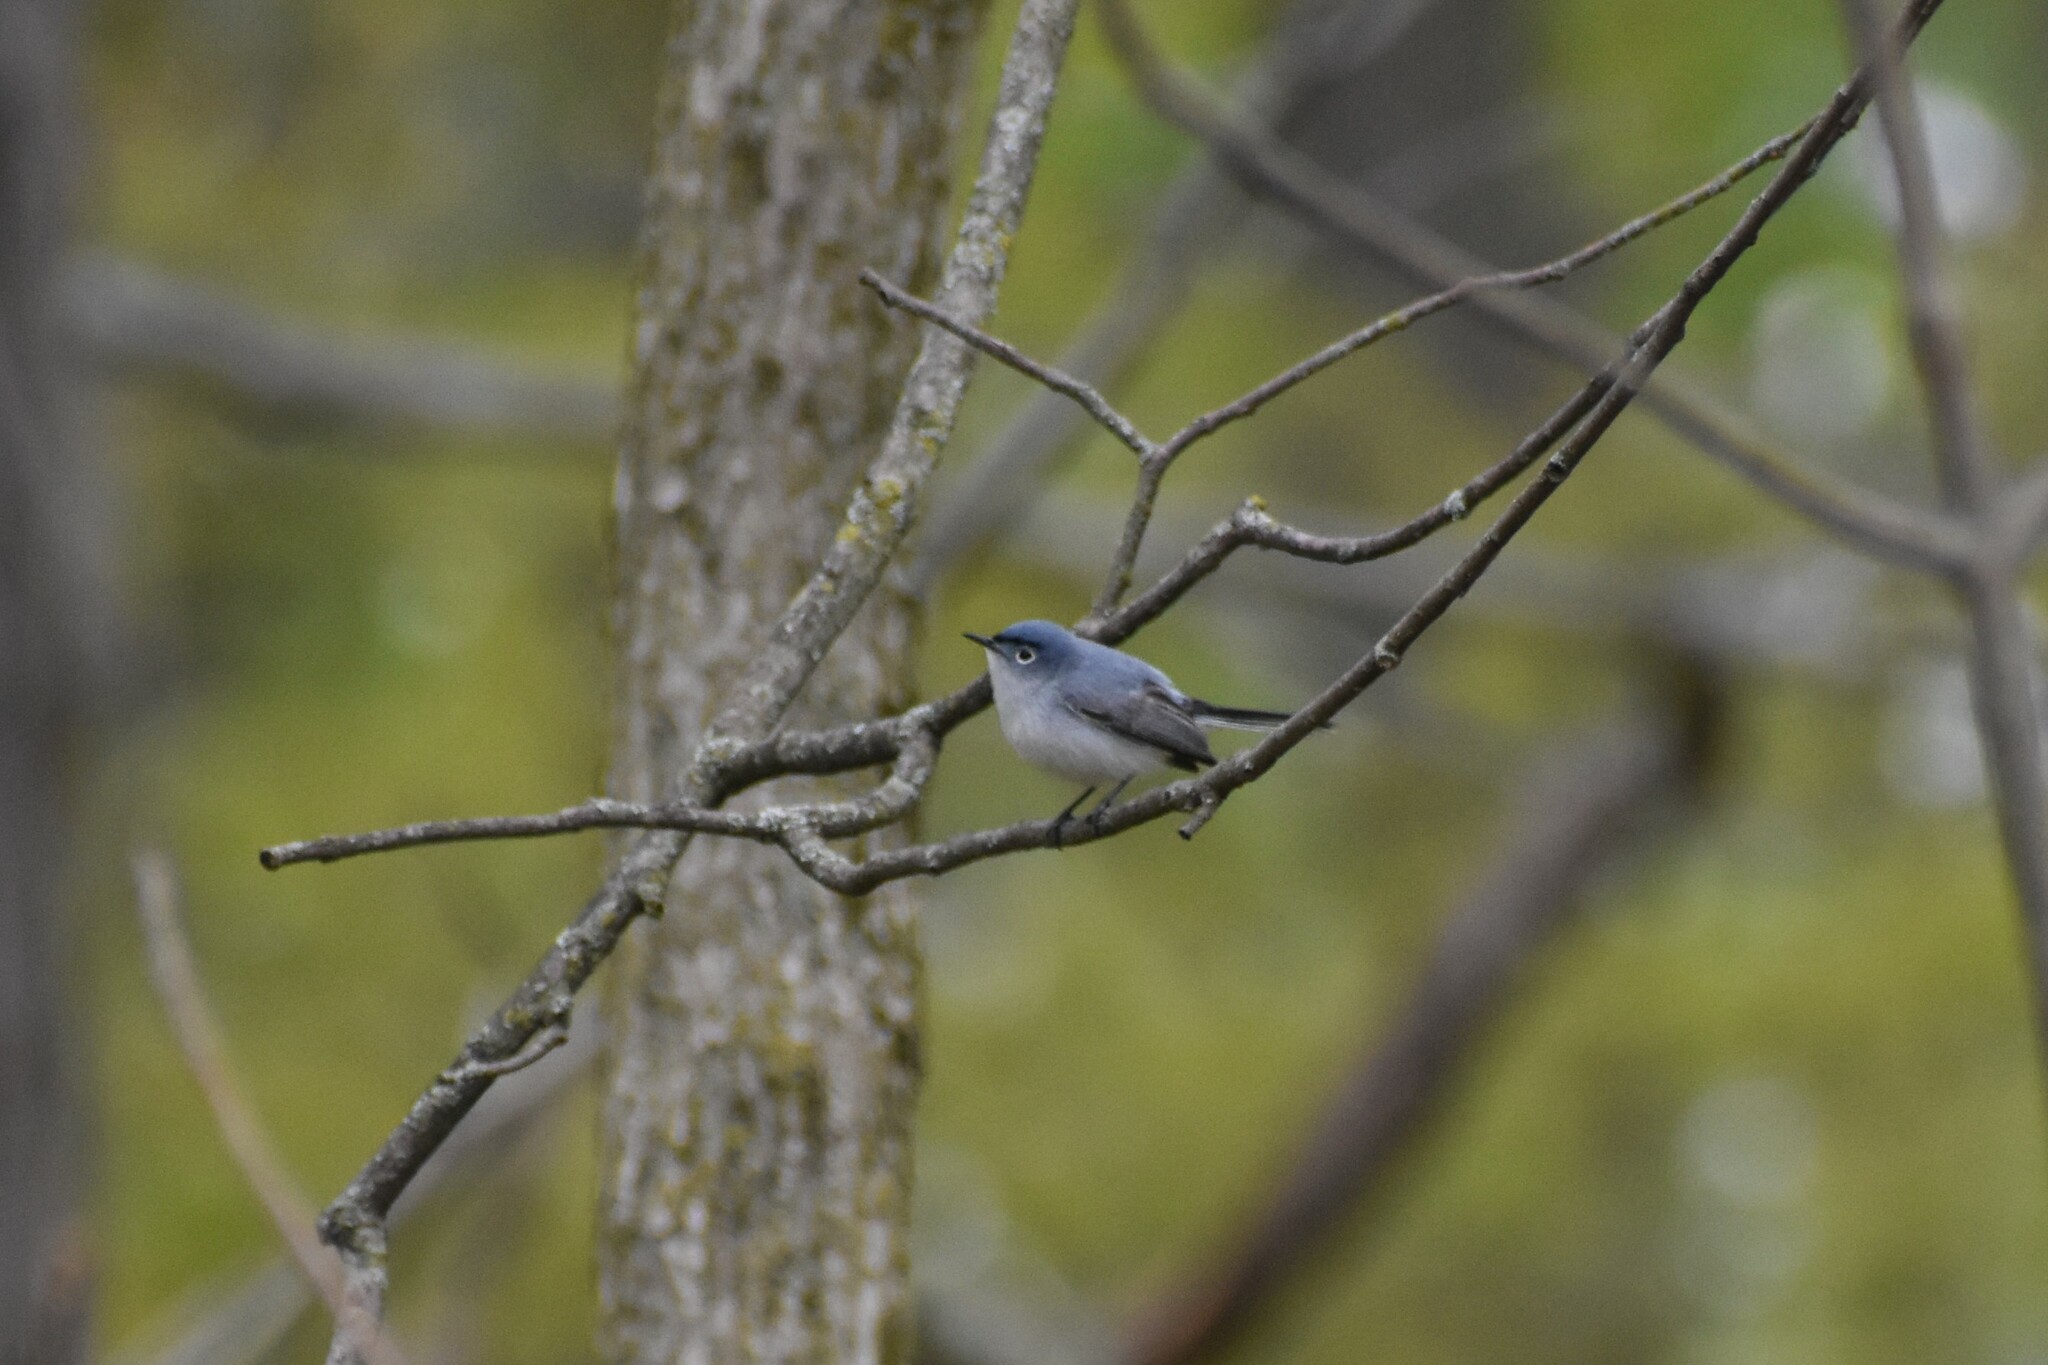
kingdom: Animalia
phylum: Chordata
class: Aves
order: Passeriformes
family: Polioptilidae
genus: Polioptila
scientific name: Polioptila caerulea
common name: Blue-gray gnatcatcher
